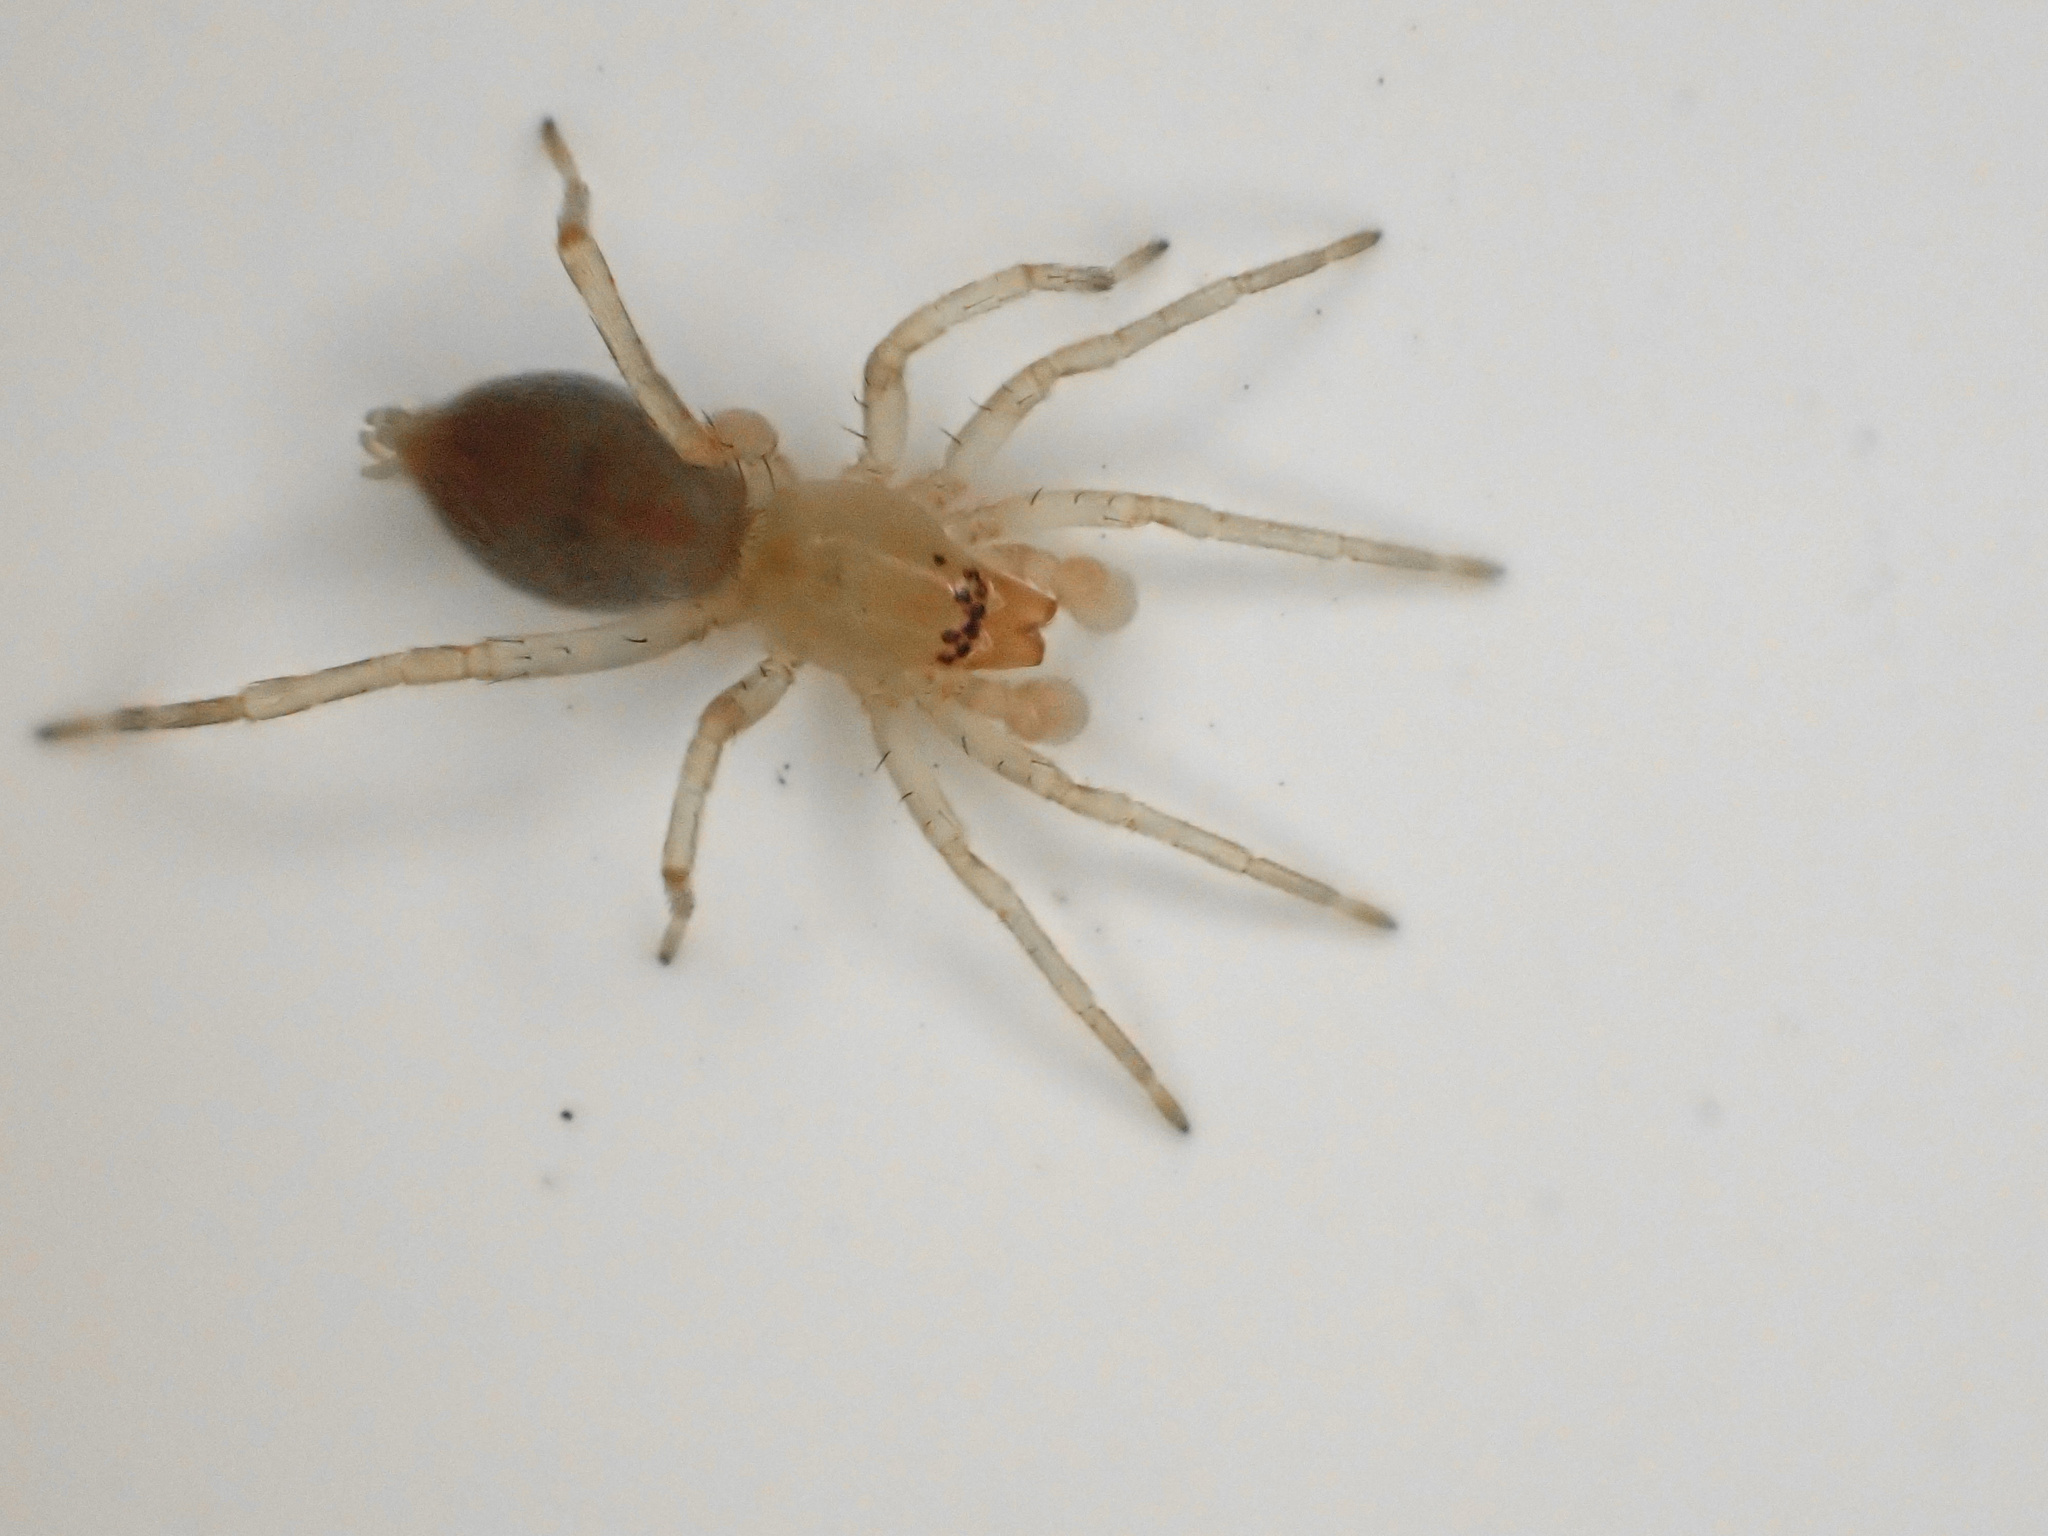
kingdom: Animalia
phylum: Arthropoda
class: Arachnida
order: Araneae
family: Clubionidae
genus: Clubiona
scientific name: Clubiona
